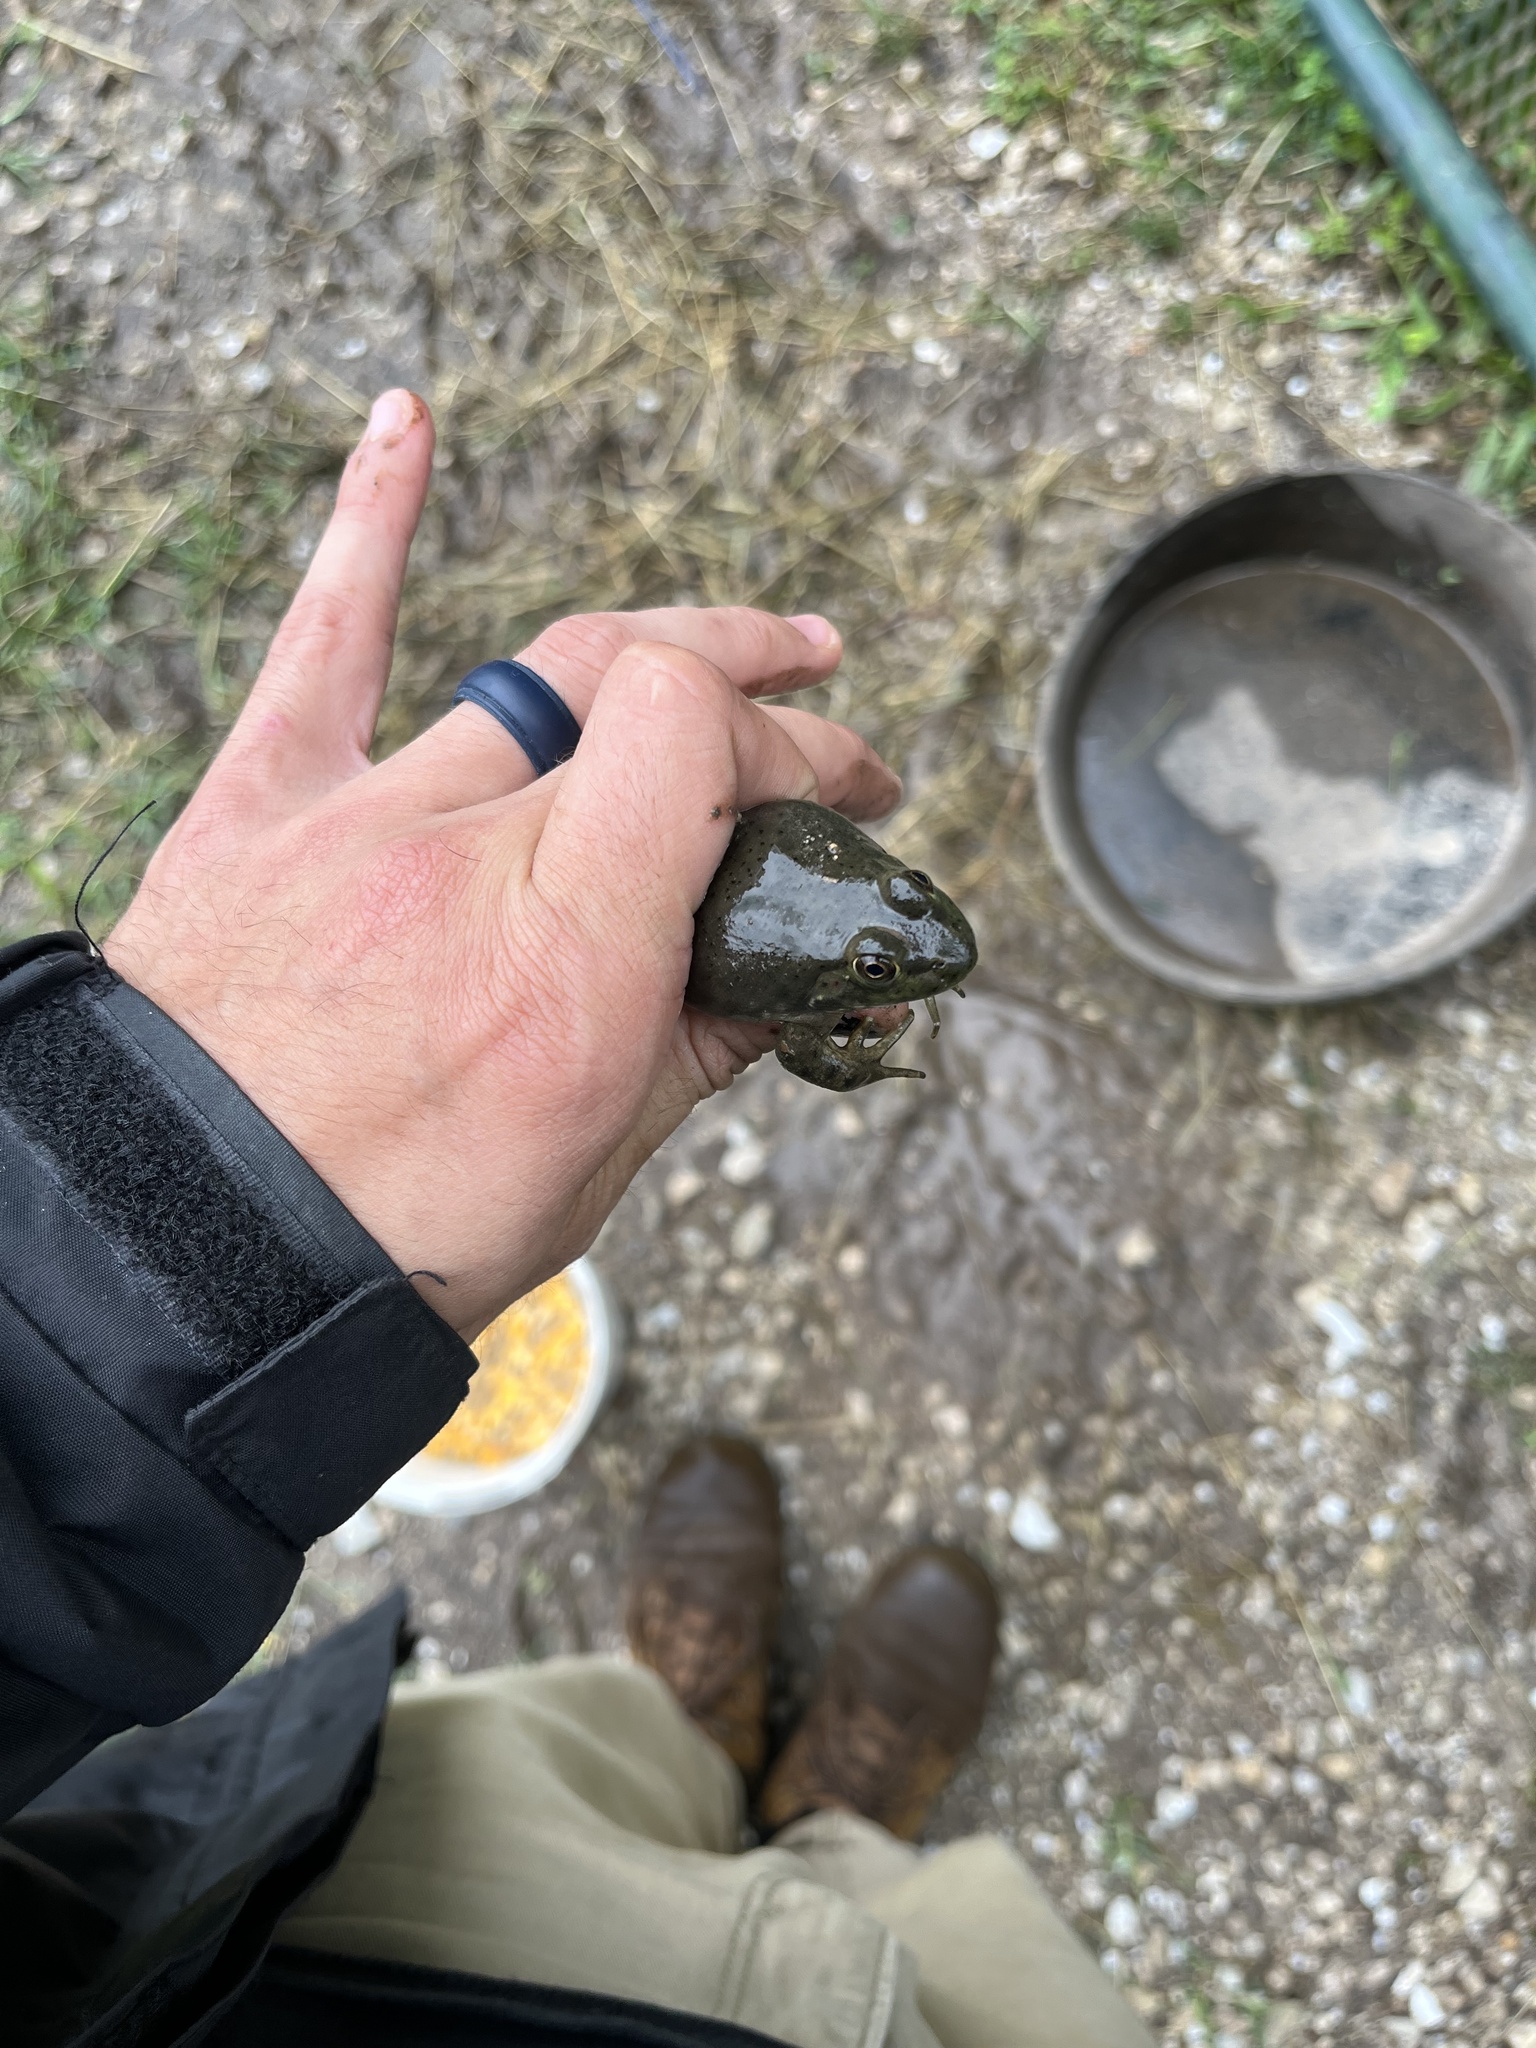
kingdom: Animalia
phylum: Chordata
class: Amphibia
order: Anura
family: Ranidae
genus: Lithobates
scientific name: Lithobates catesbeianus
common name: American bullfrog
